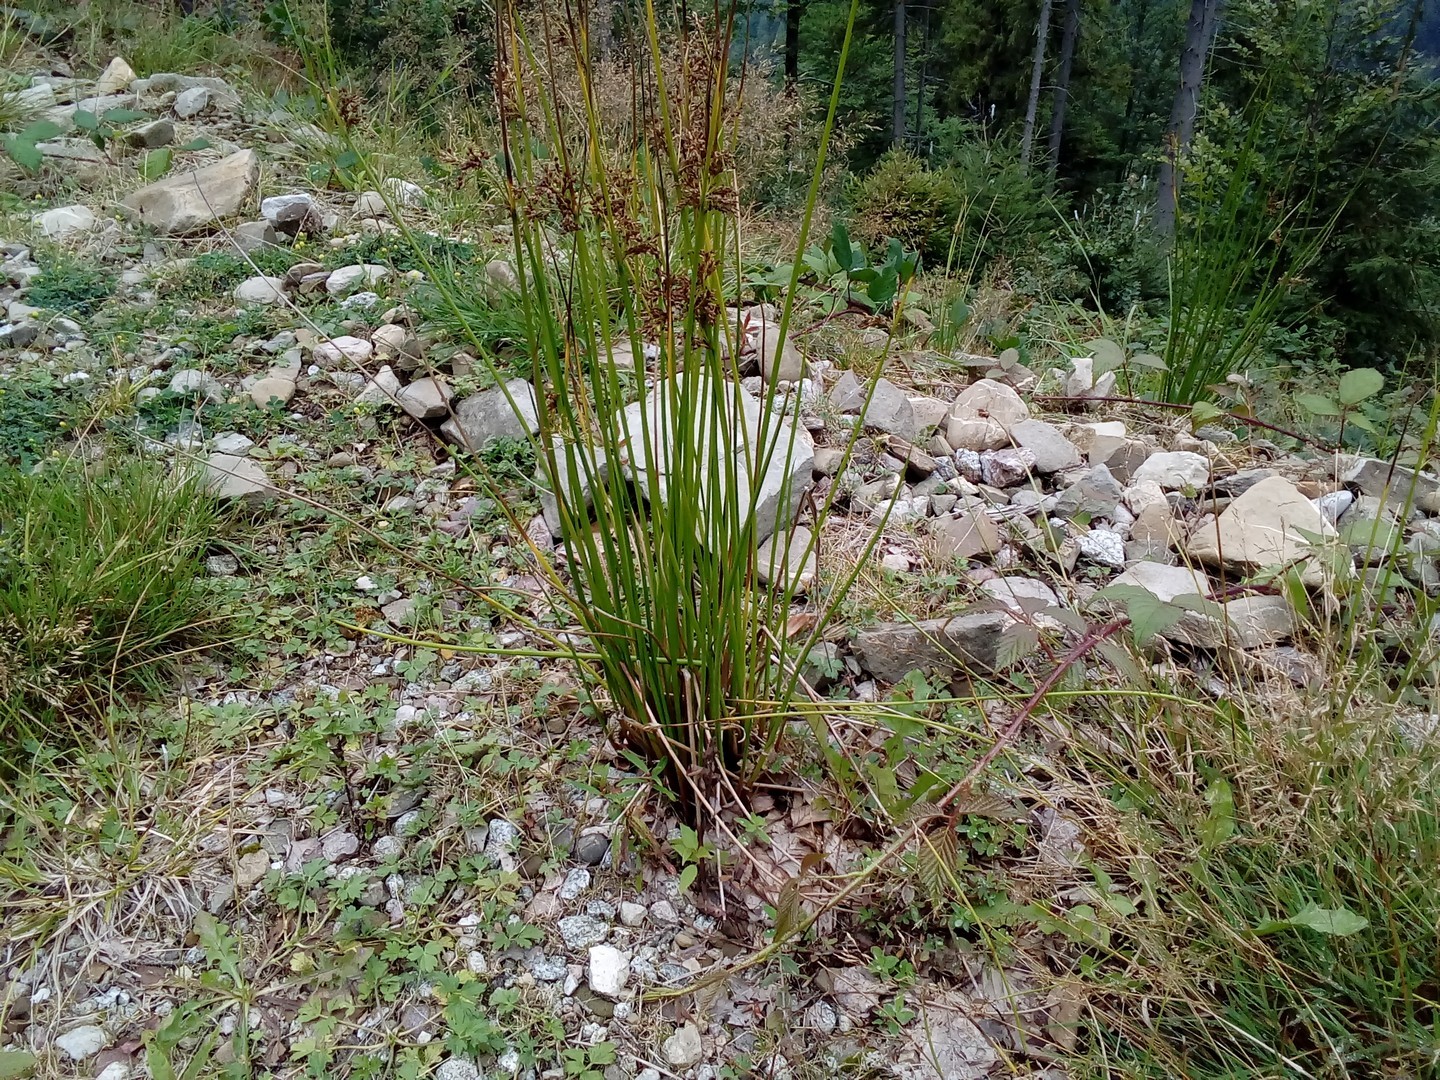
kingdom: Plantae
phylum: Tracheophyta
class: Liliopsida
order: Poales
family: Juncaceae
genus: Juncus
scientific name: Juncus effusus
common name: Soft rush
